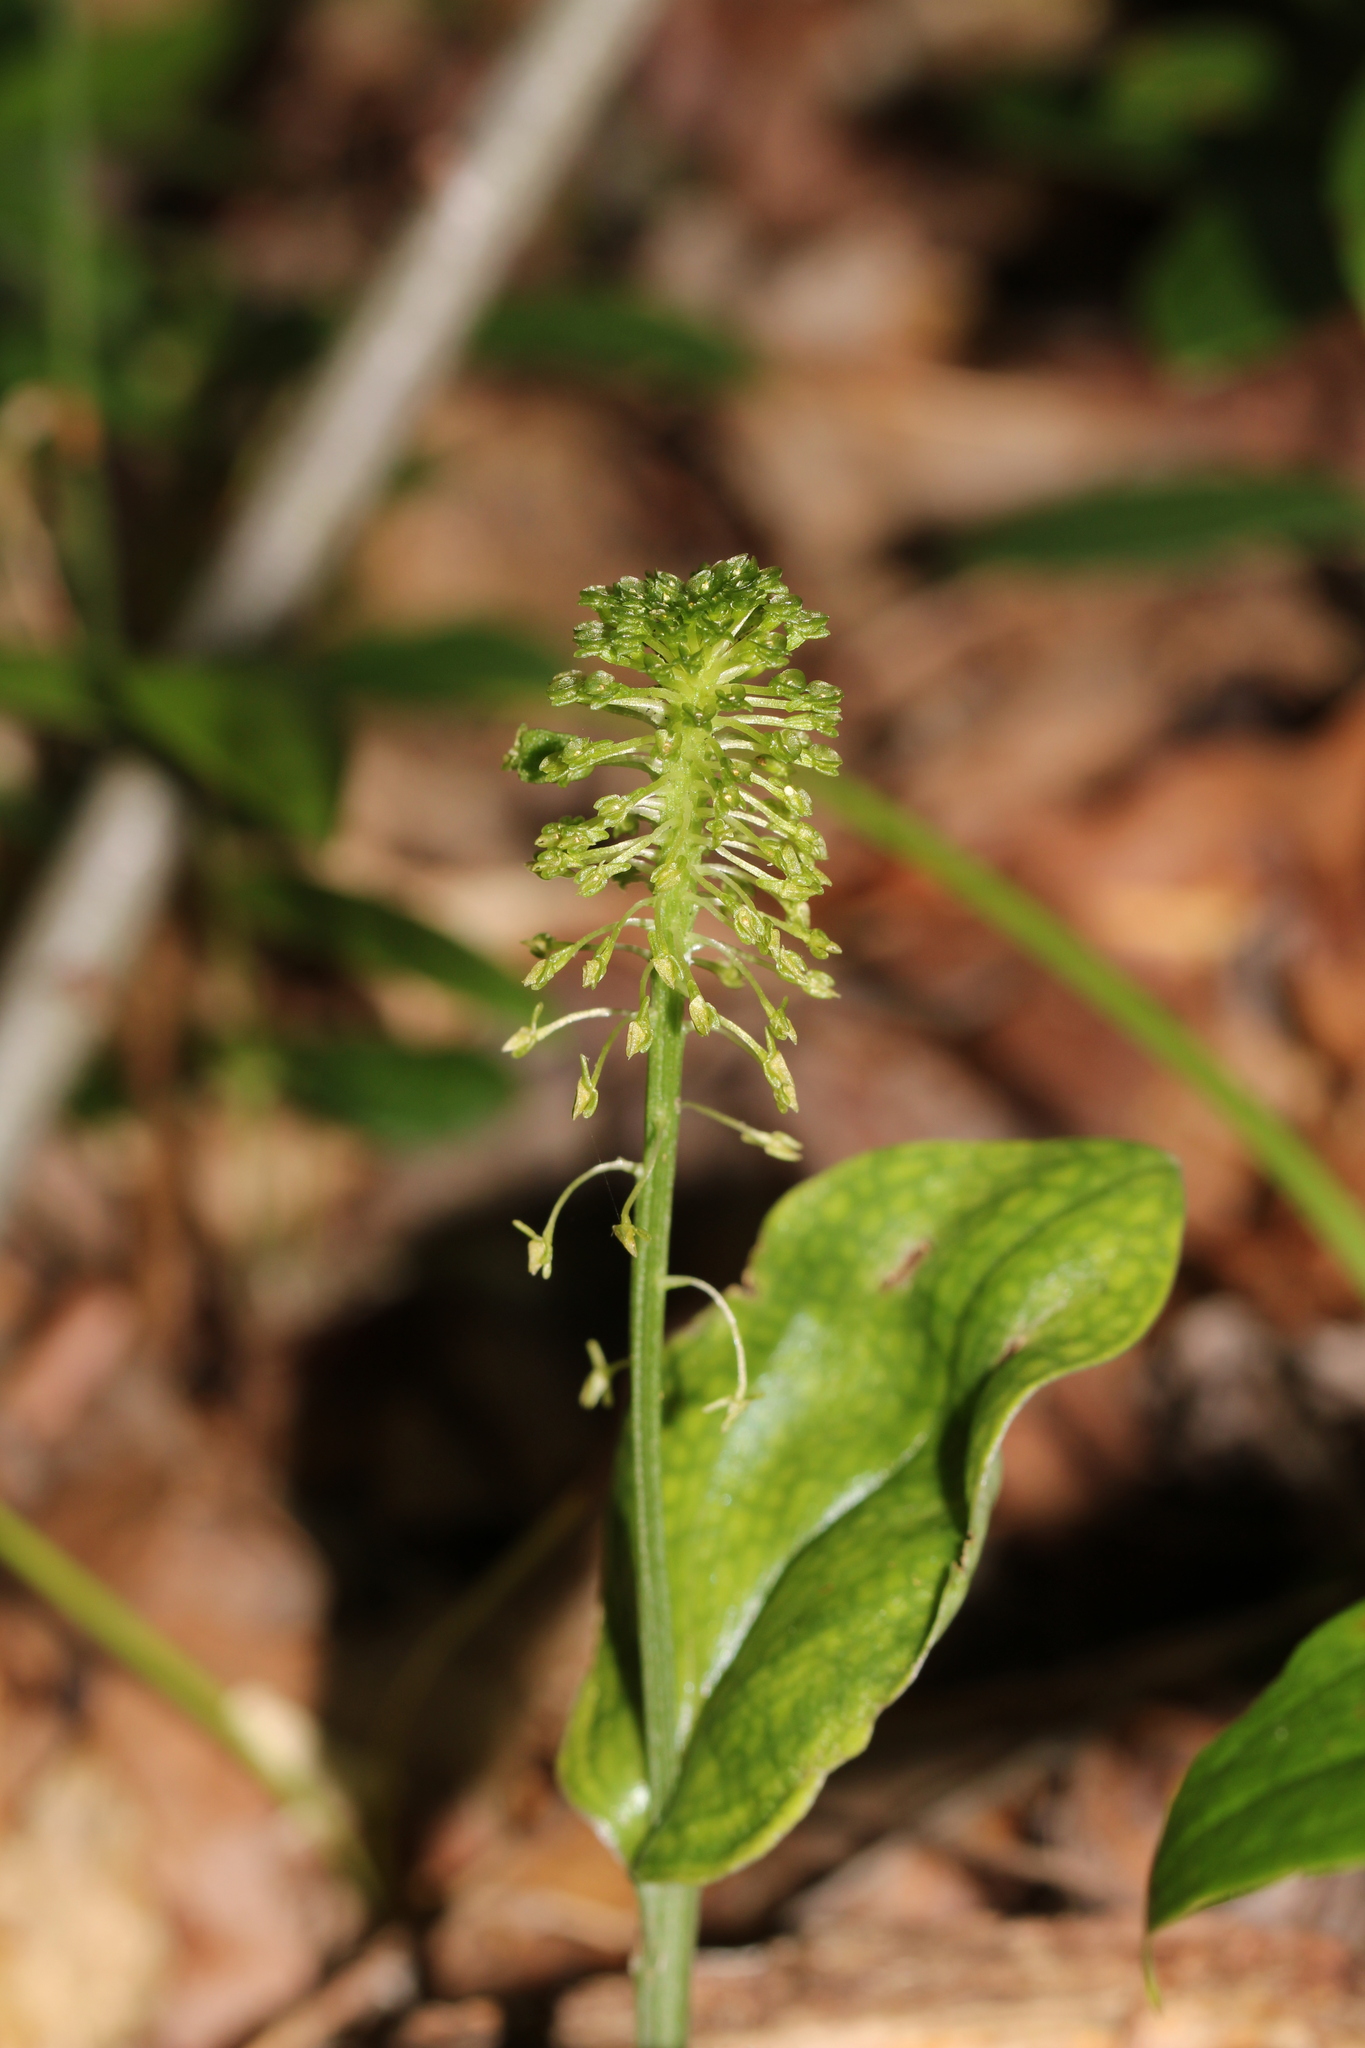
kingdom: Plantae
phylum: Tracheophyta
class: Liliopsida
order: Asparagales
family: Orchidaceae
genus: Malaxis
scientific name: Malaxis unifolia
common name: Green adder's-mouth
